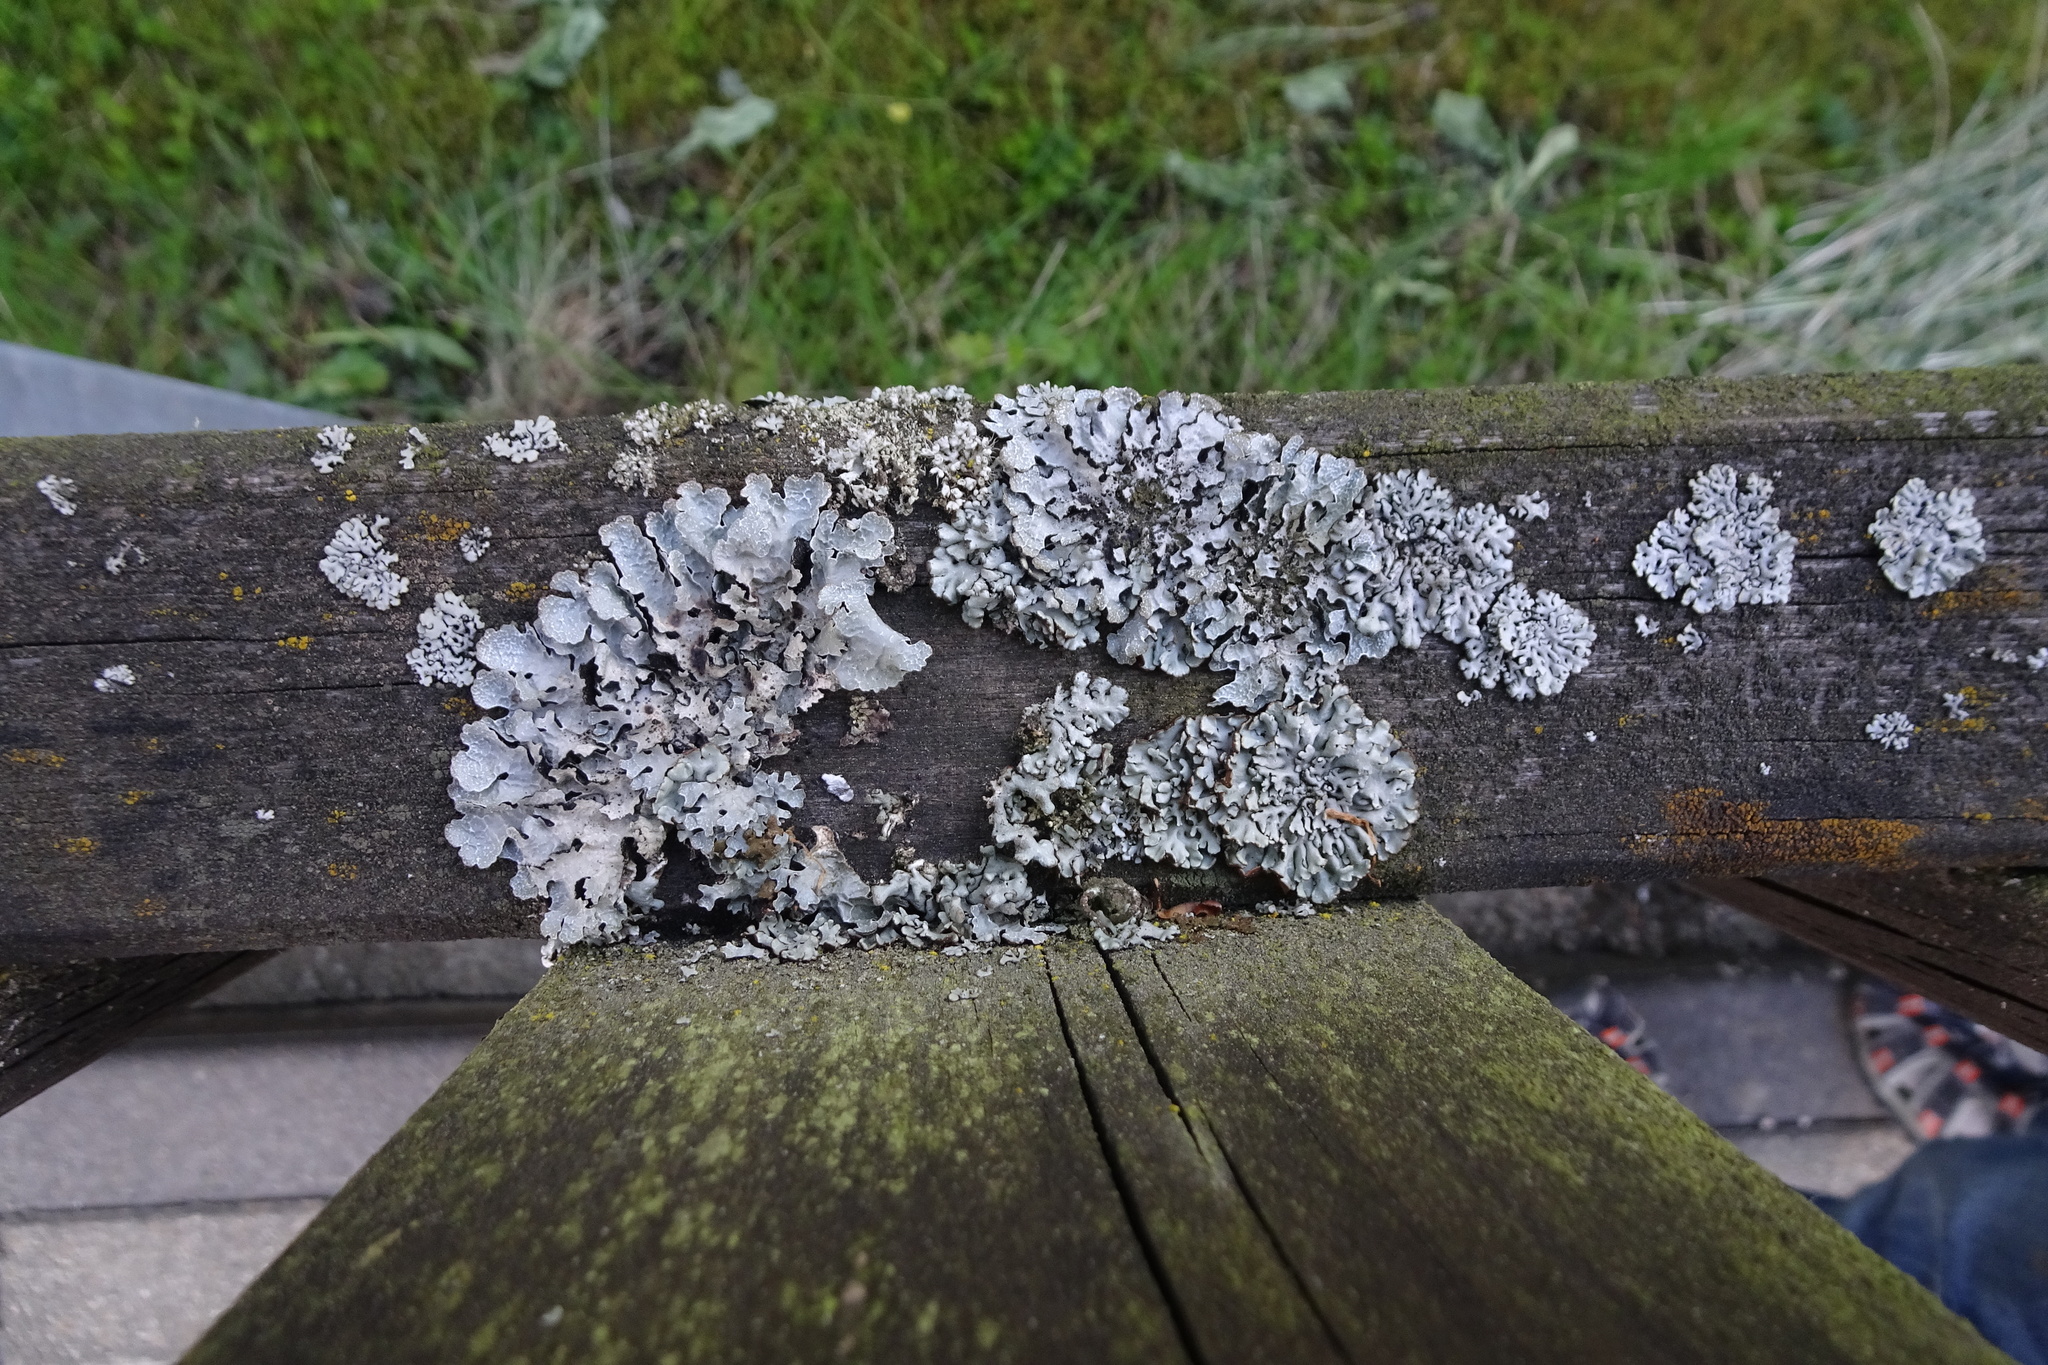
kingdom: Fungi
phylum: Ascomycota
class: Lecanoromycetes
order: Lecanorales
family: Parmeliaceae
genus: Parmelia
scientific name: Parmelia sulcata
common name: Netted shield lichen
